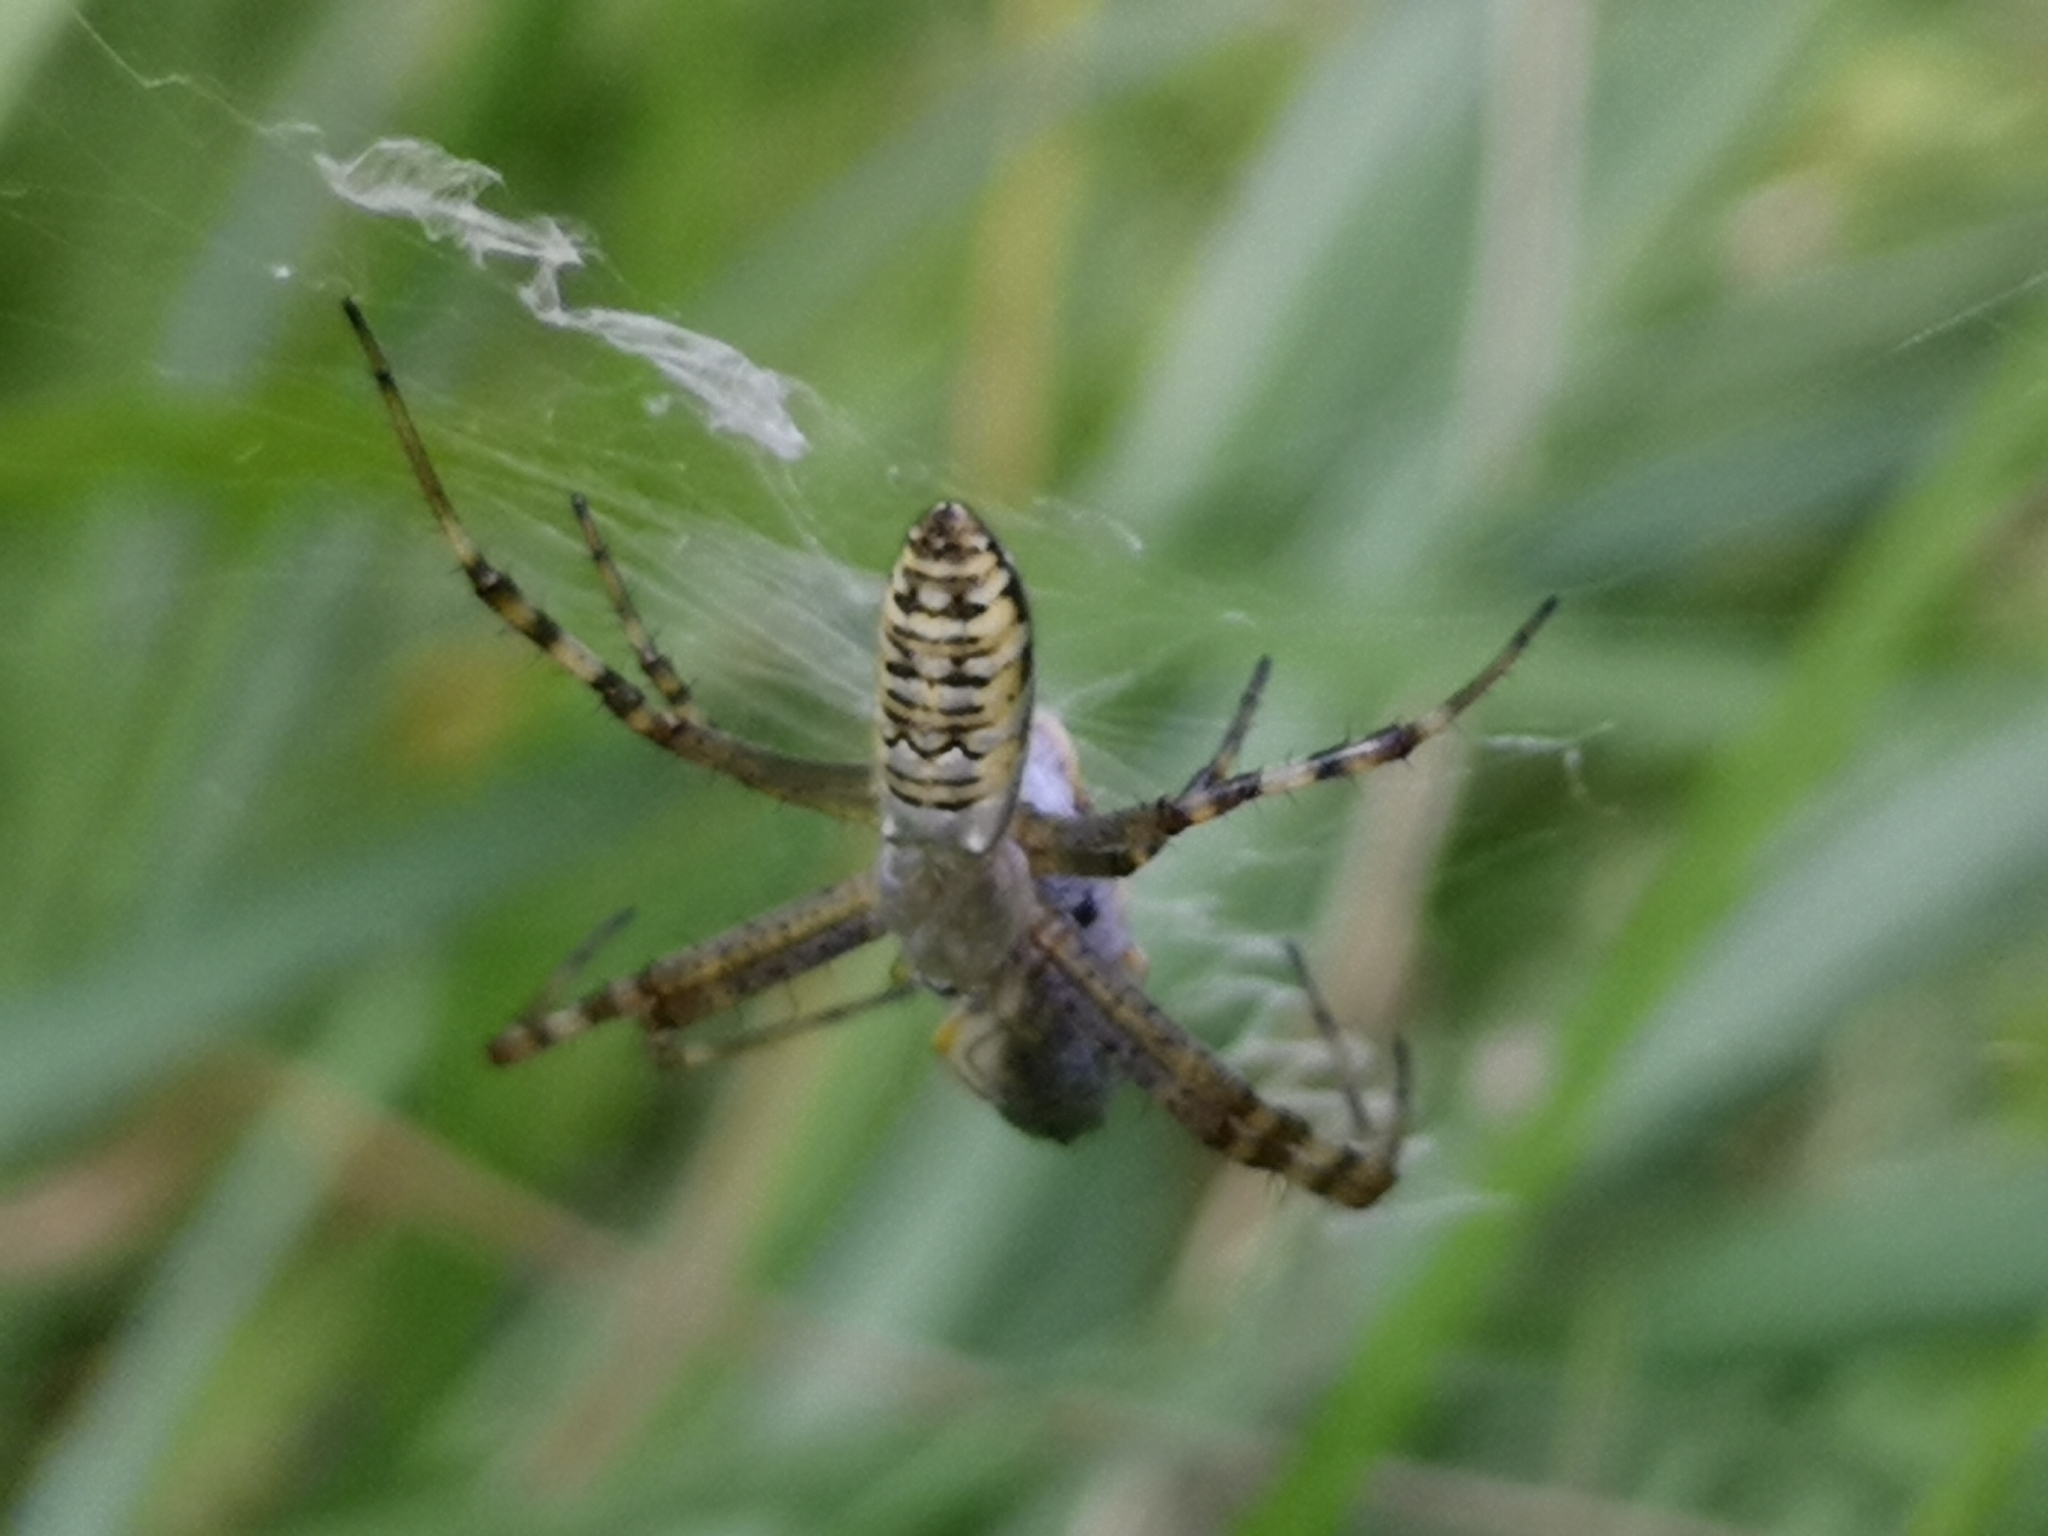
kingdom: Animalia
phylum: Arthropoda
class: Arachnida
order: Araneae
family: Araneidae
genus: Argiope
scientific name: Argiope bruennichi
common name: Wasp spider
